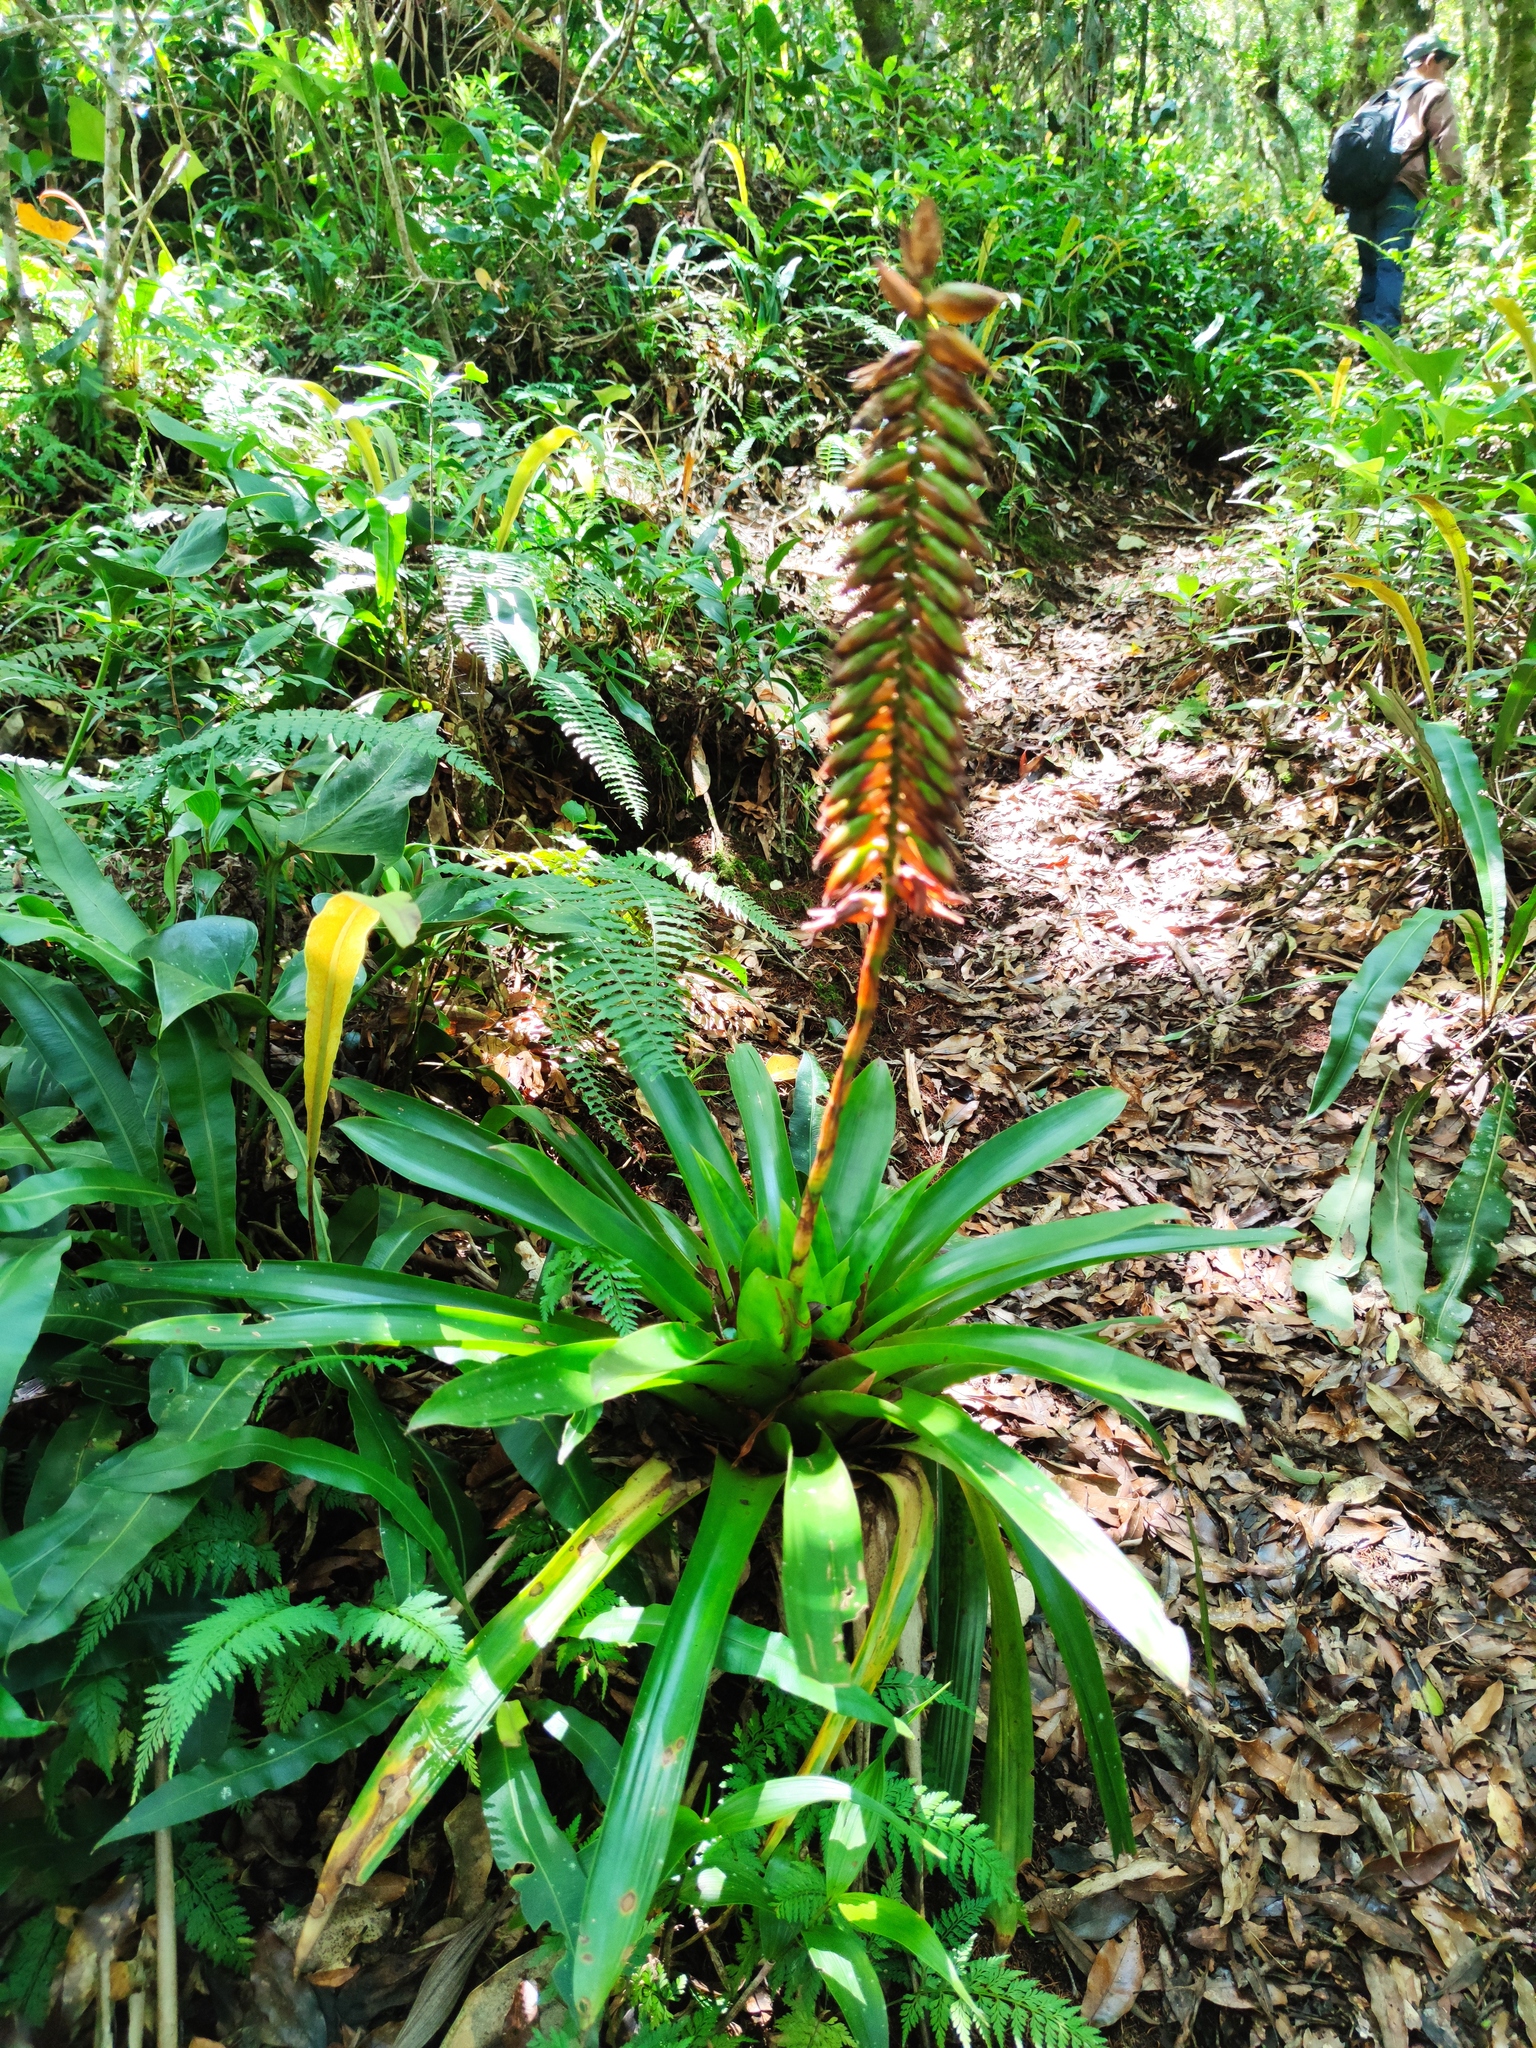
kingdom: Plantae
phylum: Tracheophyta
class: Liliopsida
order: Poales
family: Bromeliaceae
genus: Werauhia
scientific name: Werauhia pycnantha
